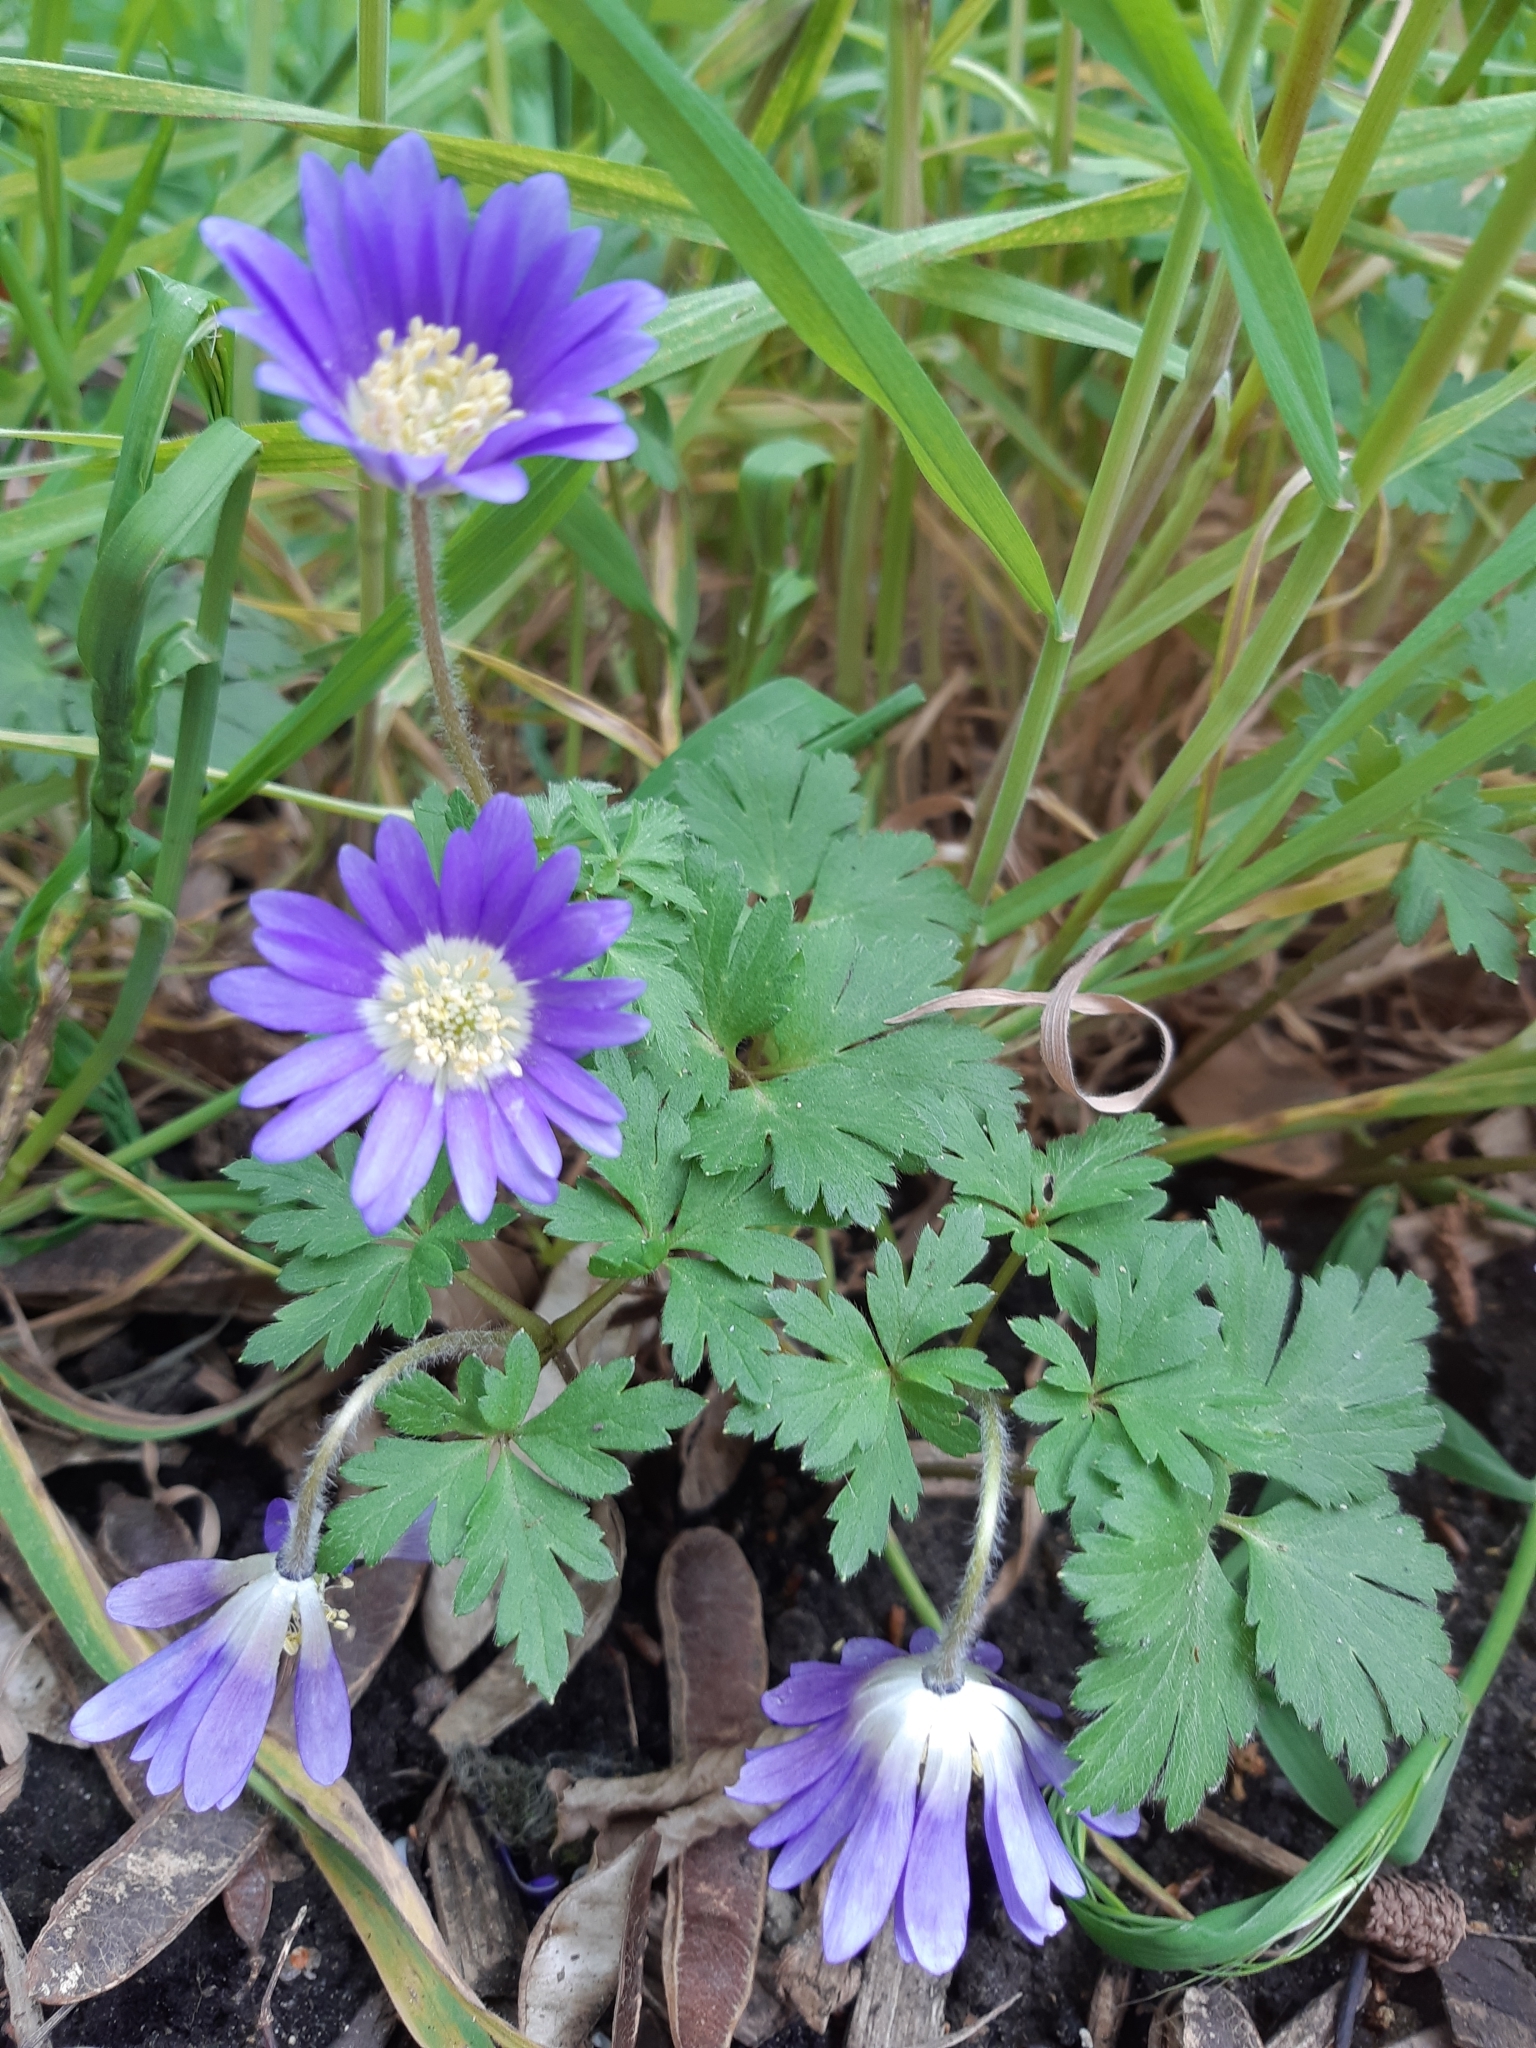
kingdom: Plantae
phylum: Tracheophyta
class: Magnoliopsida
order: Ranunculales
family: Ranunculaceae
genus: Anemone
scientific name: Anemone blanda
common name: Balkan anemone
